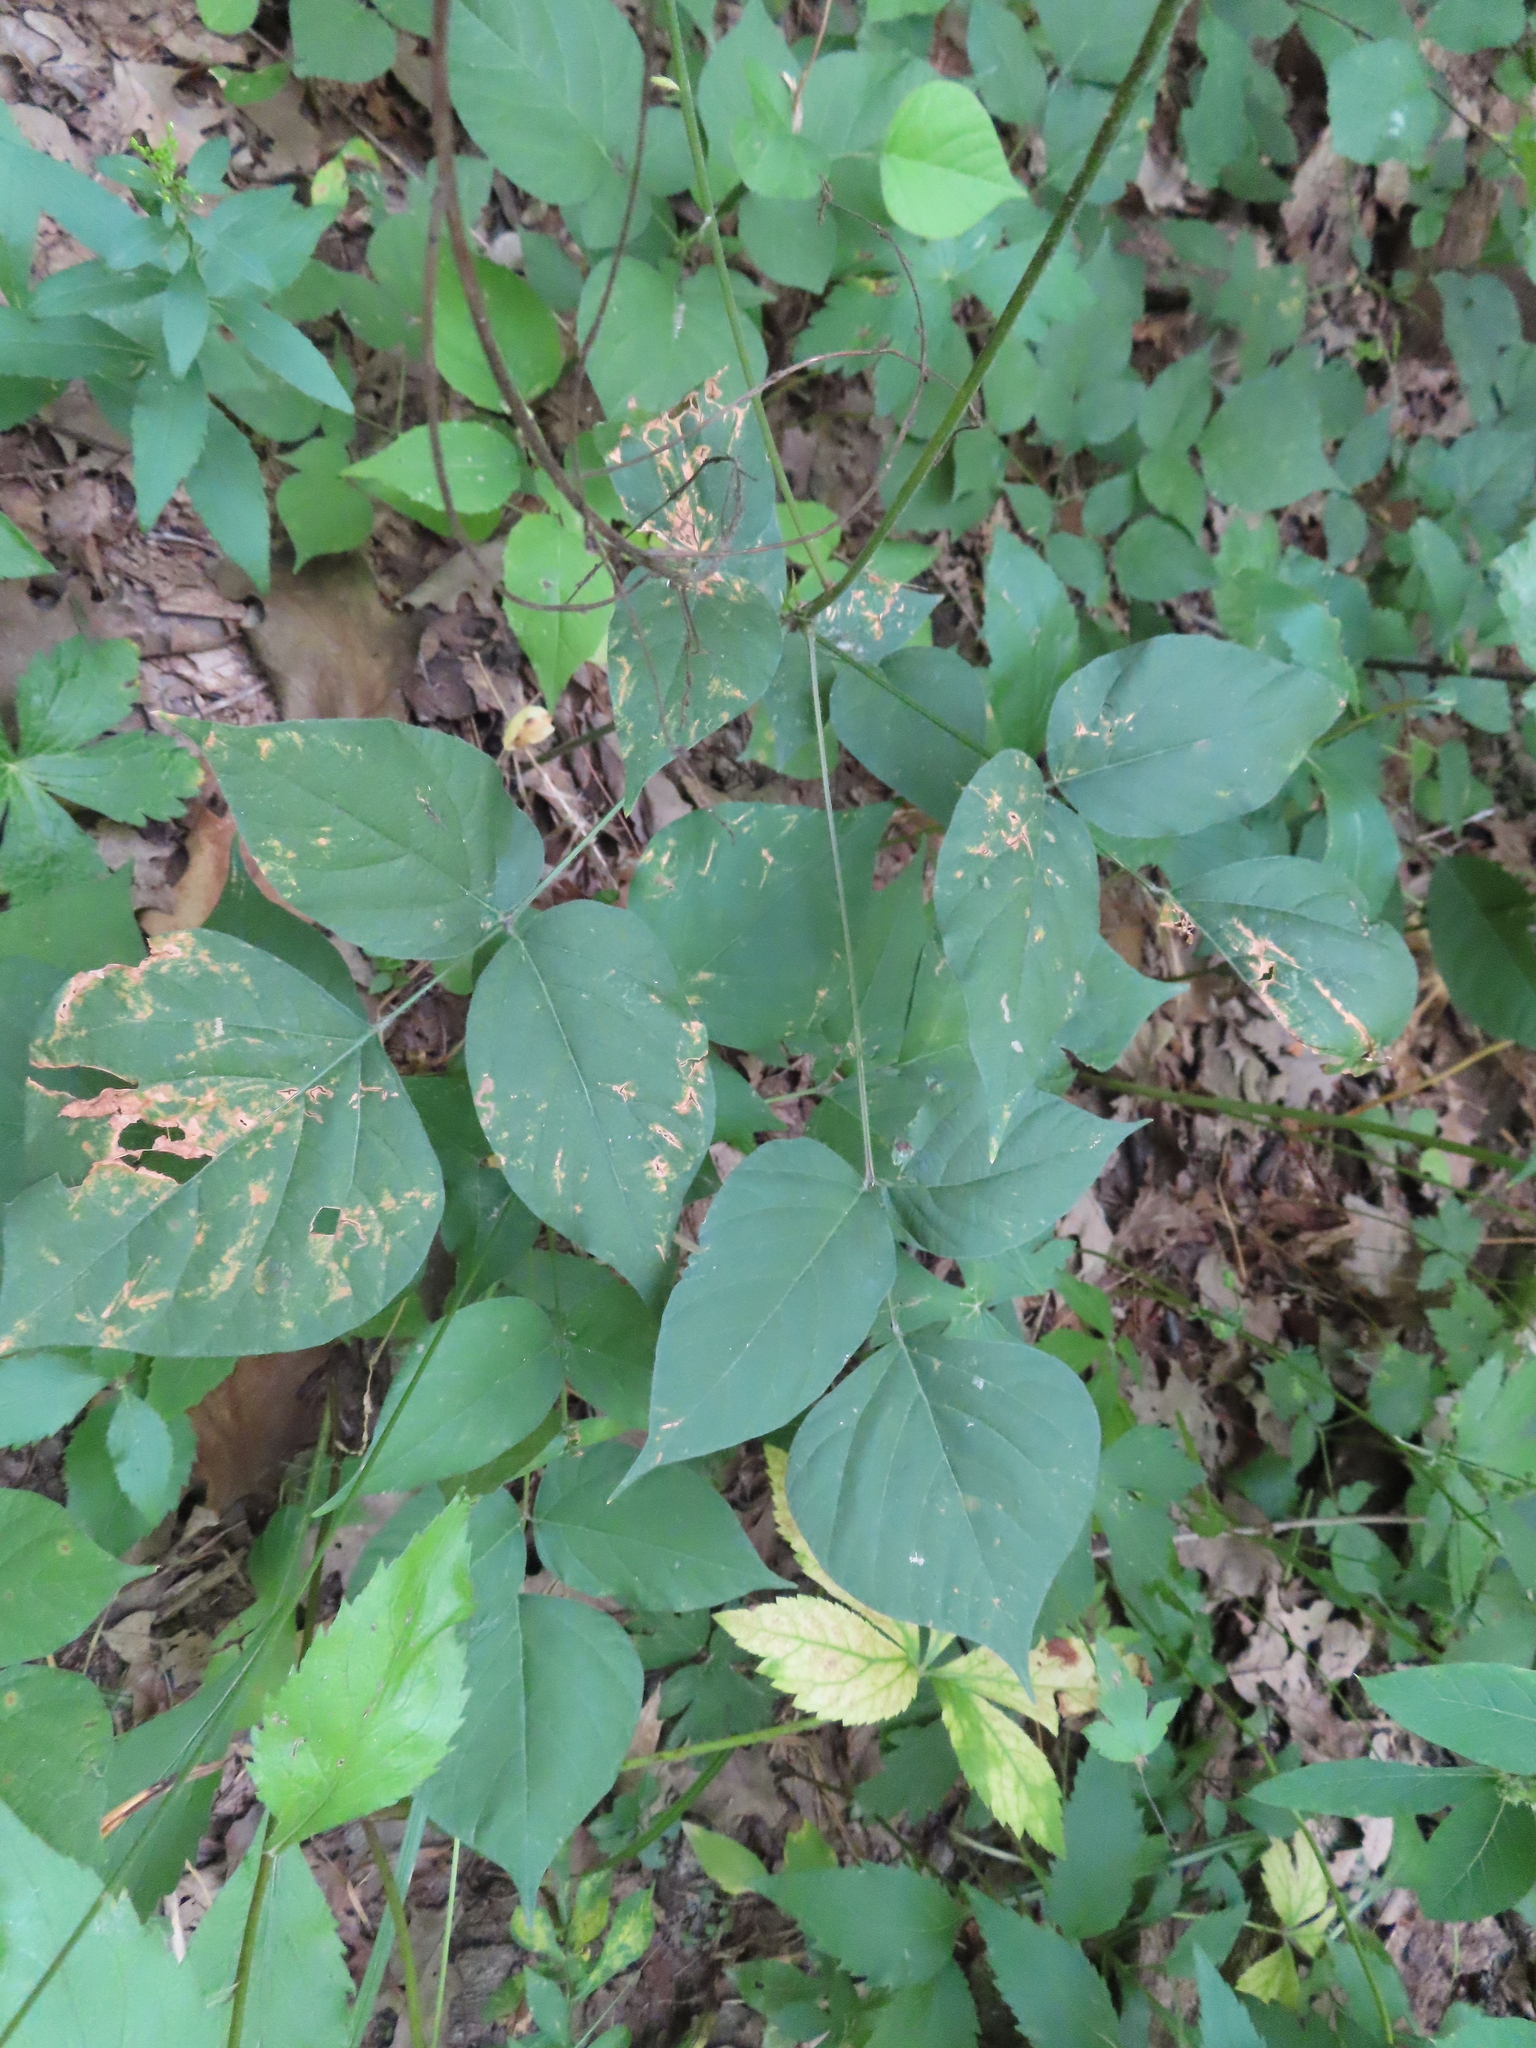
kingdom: Plantae
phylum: Tracheophyta
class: Magnoliopsida
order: Fabales
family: Fabaceae
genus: Hylodesmum
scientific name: Hylodesmum glutinosum
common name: Clustered-leaved tick-trefoil
